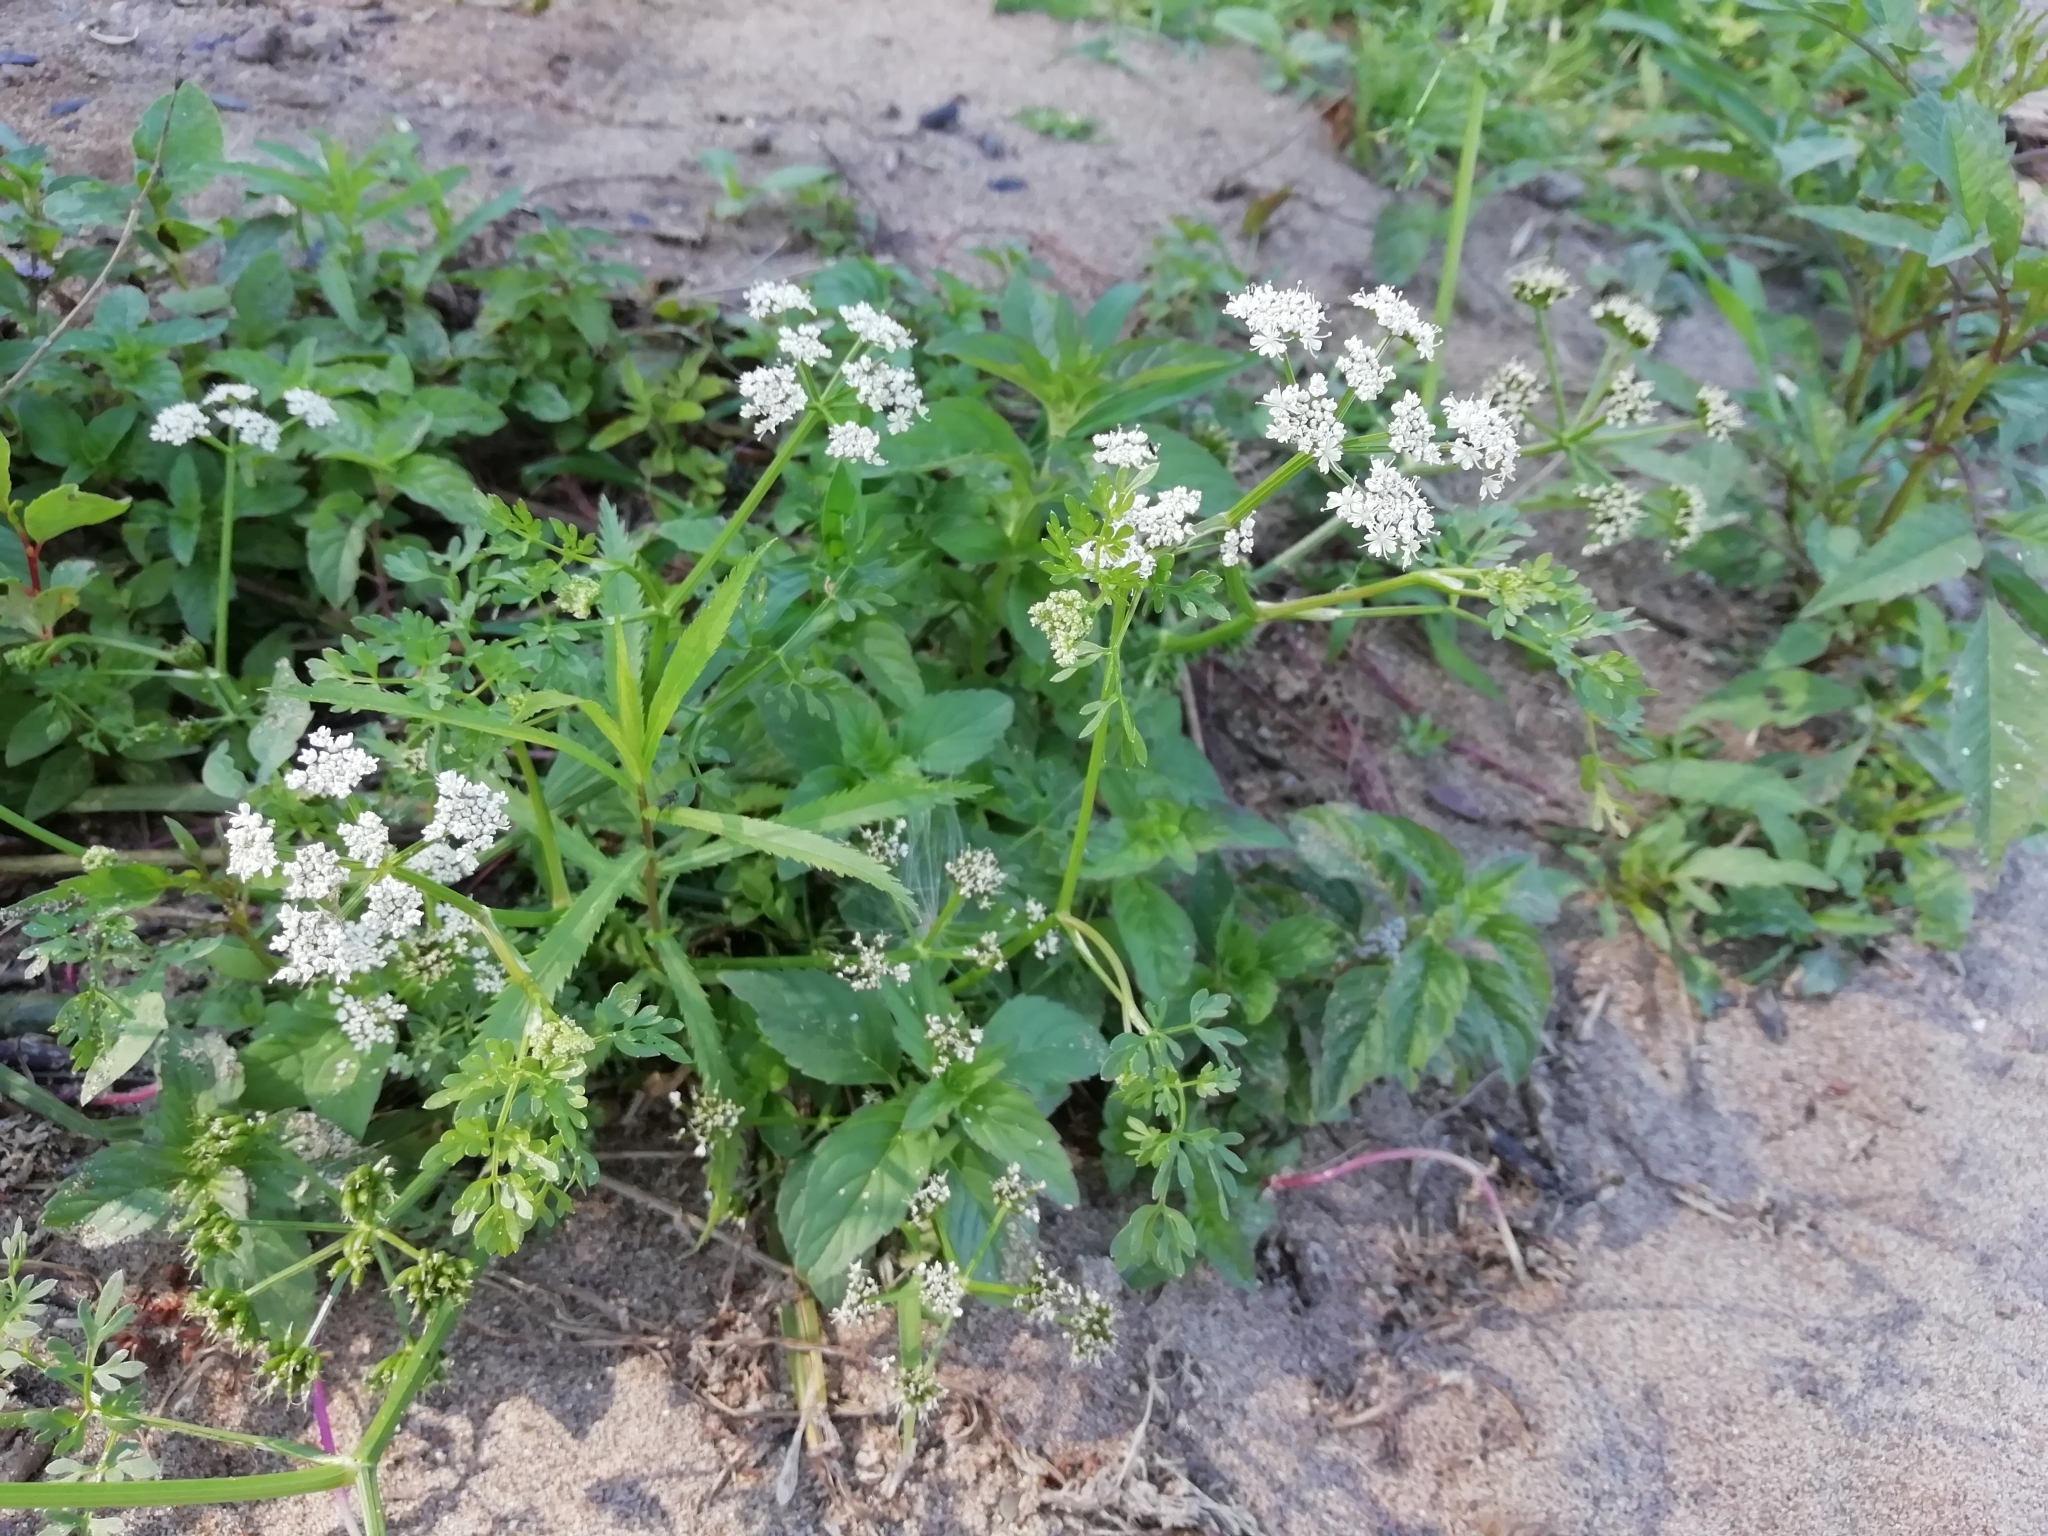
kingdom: Plantae
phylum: Tracheophyta
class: Magnoliopsida
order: Apiales
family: Apiaceae
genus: Oenanthe
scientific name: Oenanthe aquatica
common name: Fine-leaved water-dropwort
